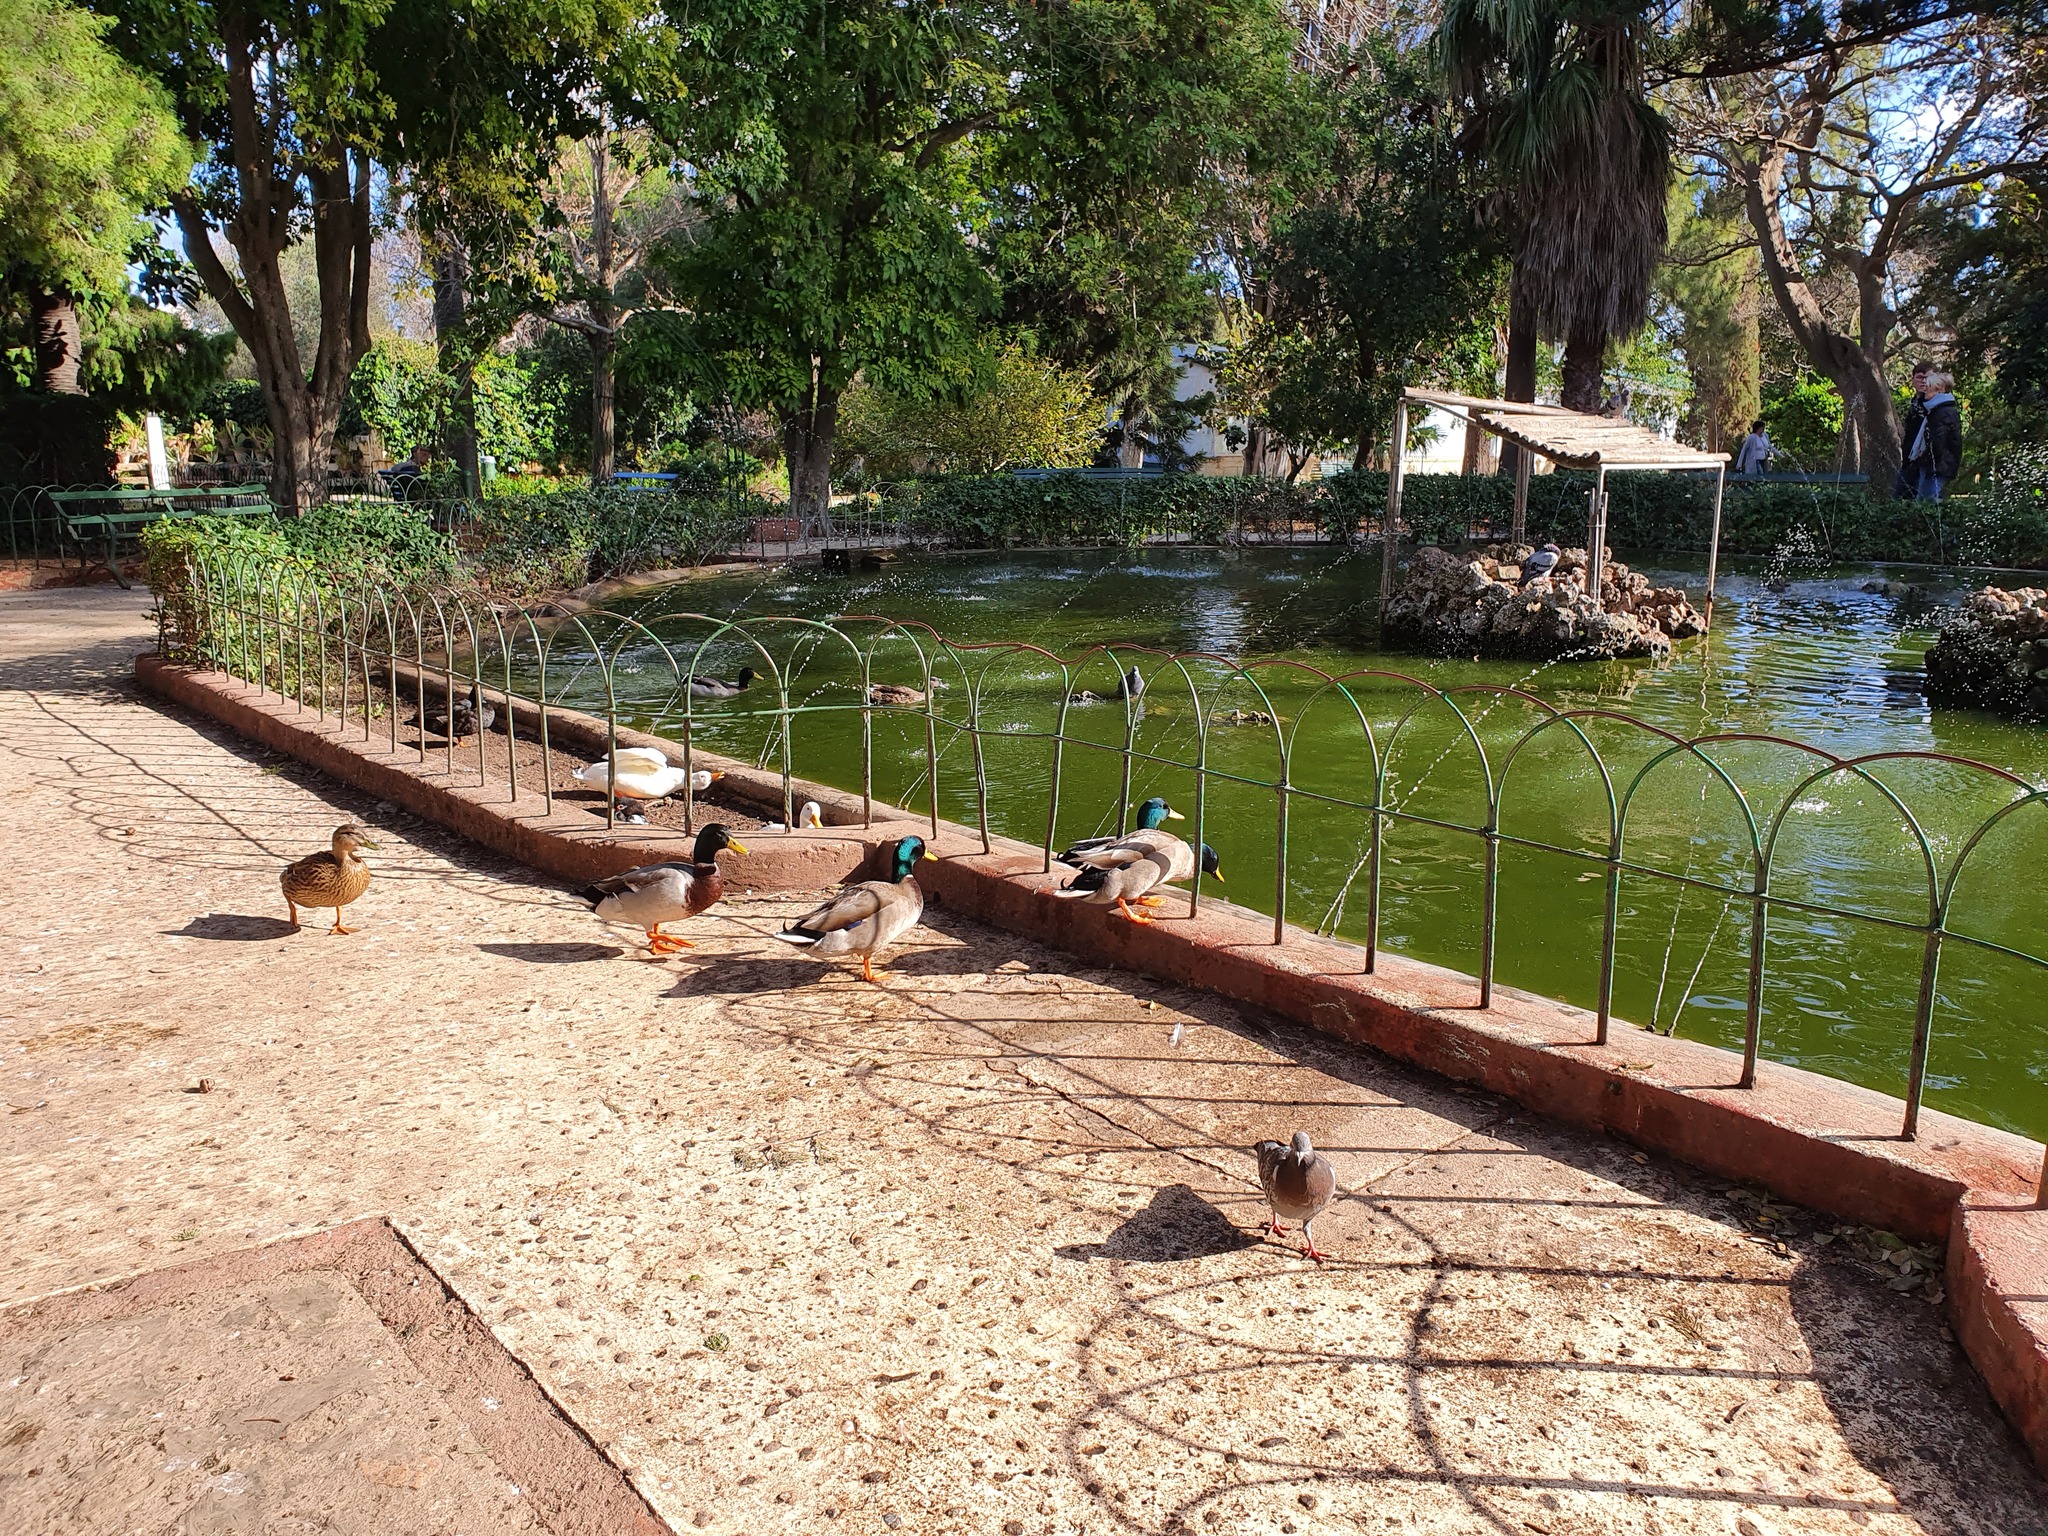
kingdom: Animalia
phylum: Chordata
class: Aves
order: Anseriformes
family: Anatidae
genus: Anas
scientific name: Anas platyrhynchos
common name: Mallard
